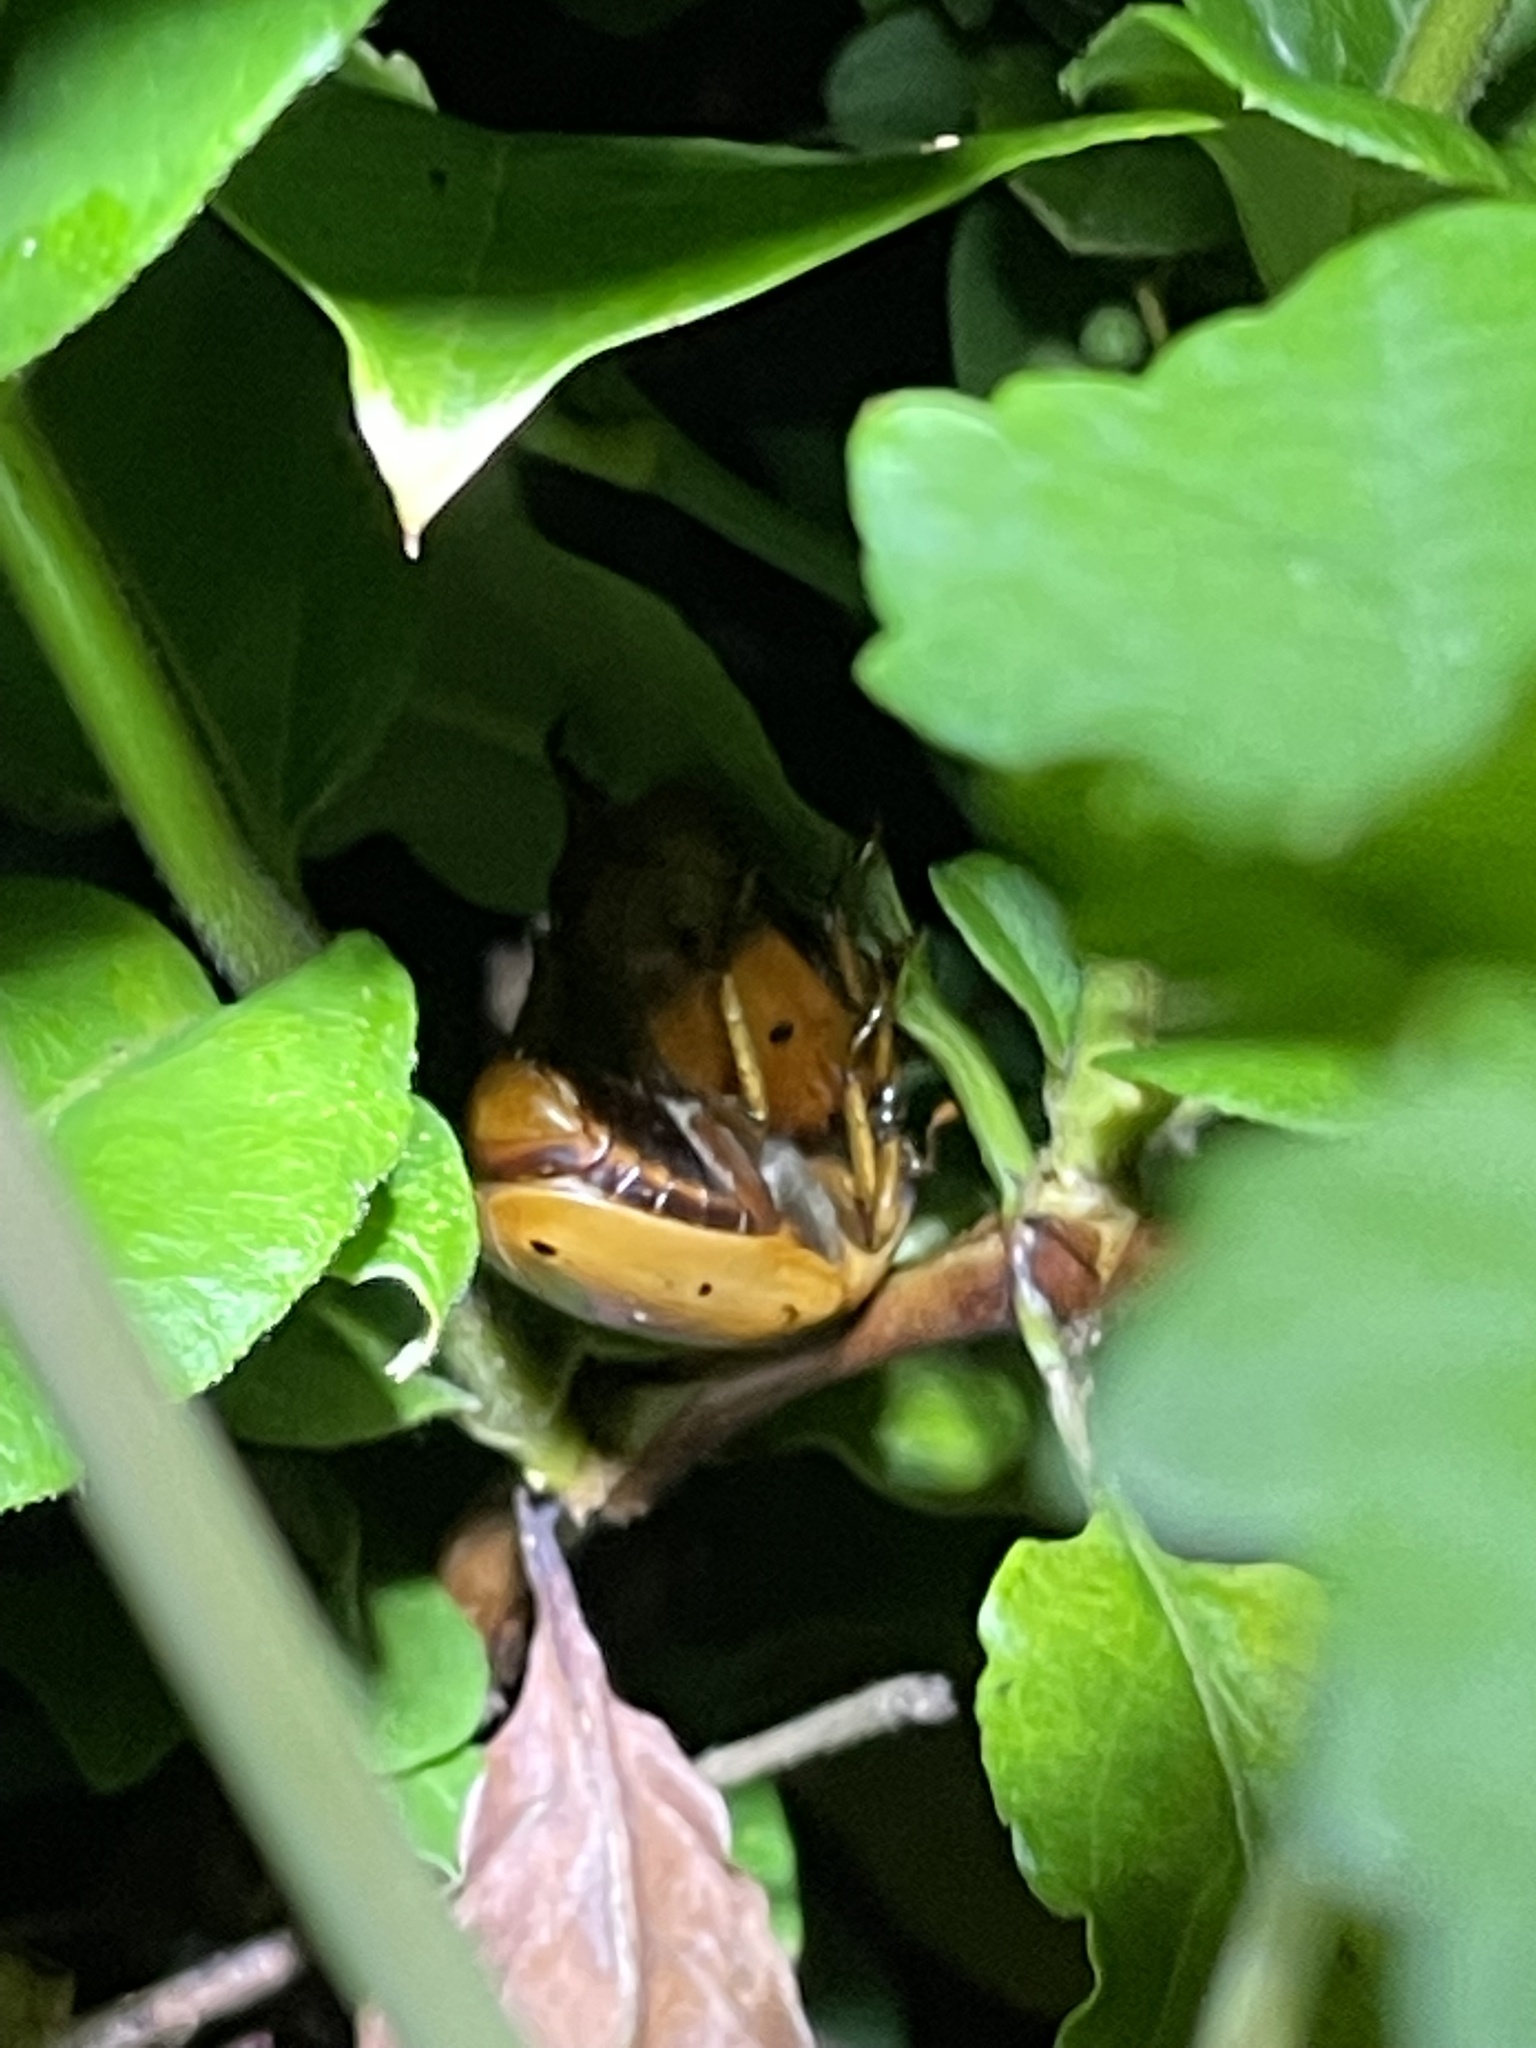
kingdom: Animalia
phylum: Arthropoda
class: Insecta
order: Coleoptera
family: Scarabaeidae
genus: Pelidnota
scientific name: Pelidnota punctata
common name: Grapevine beetle
